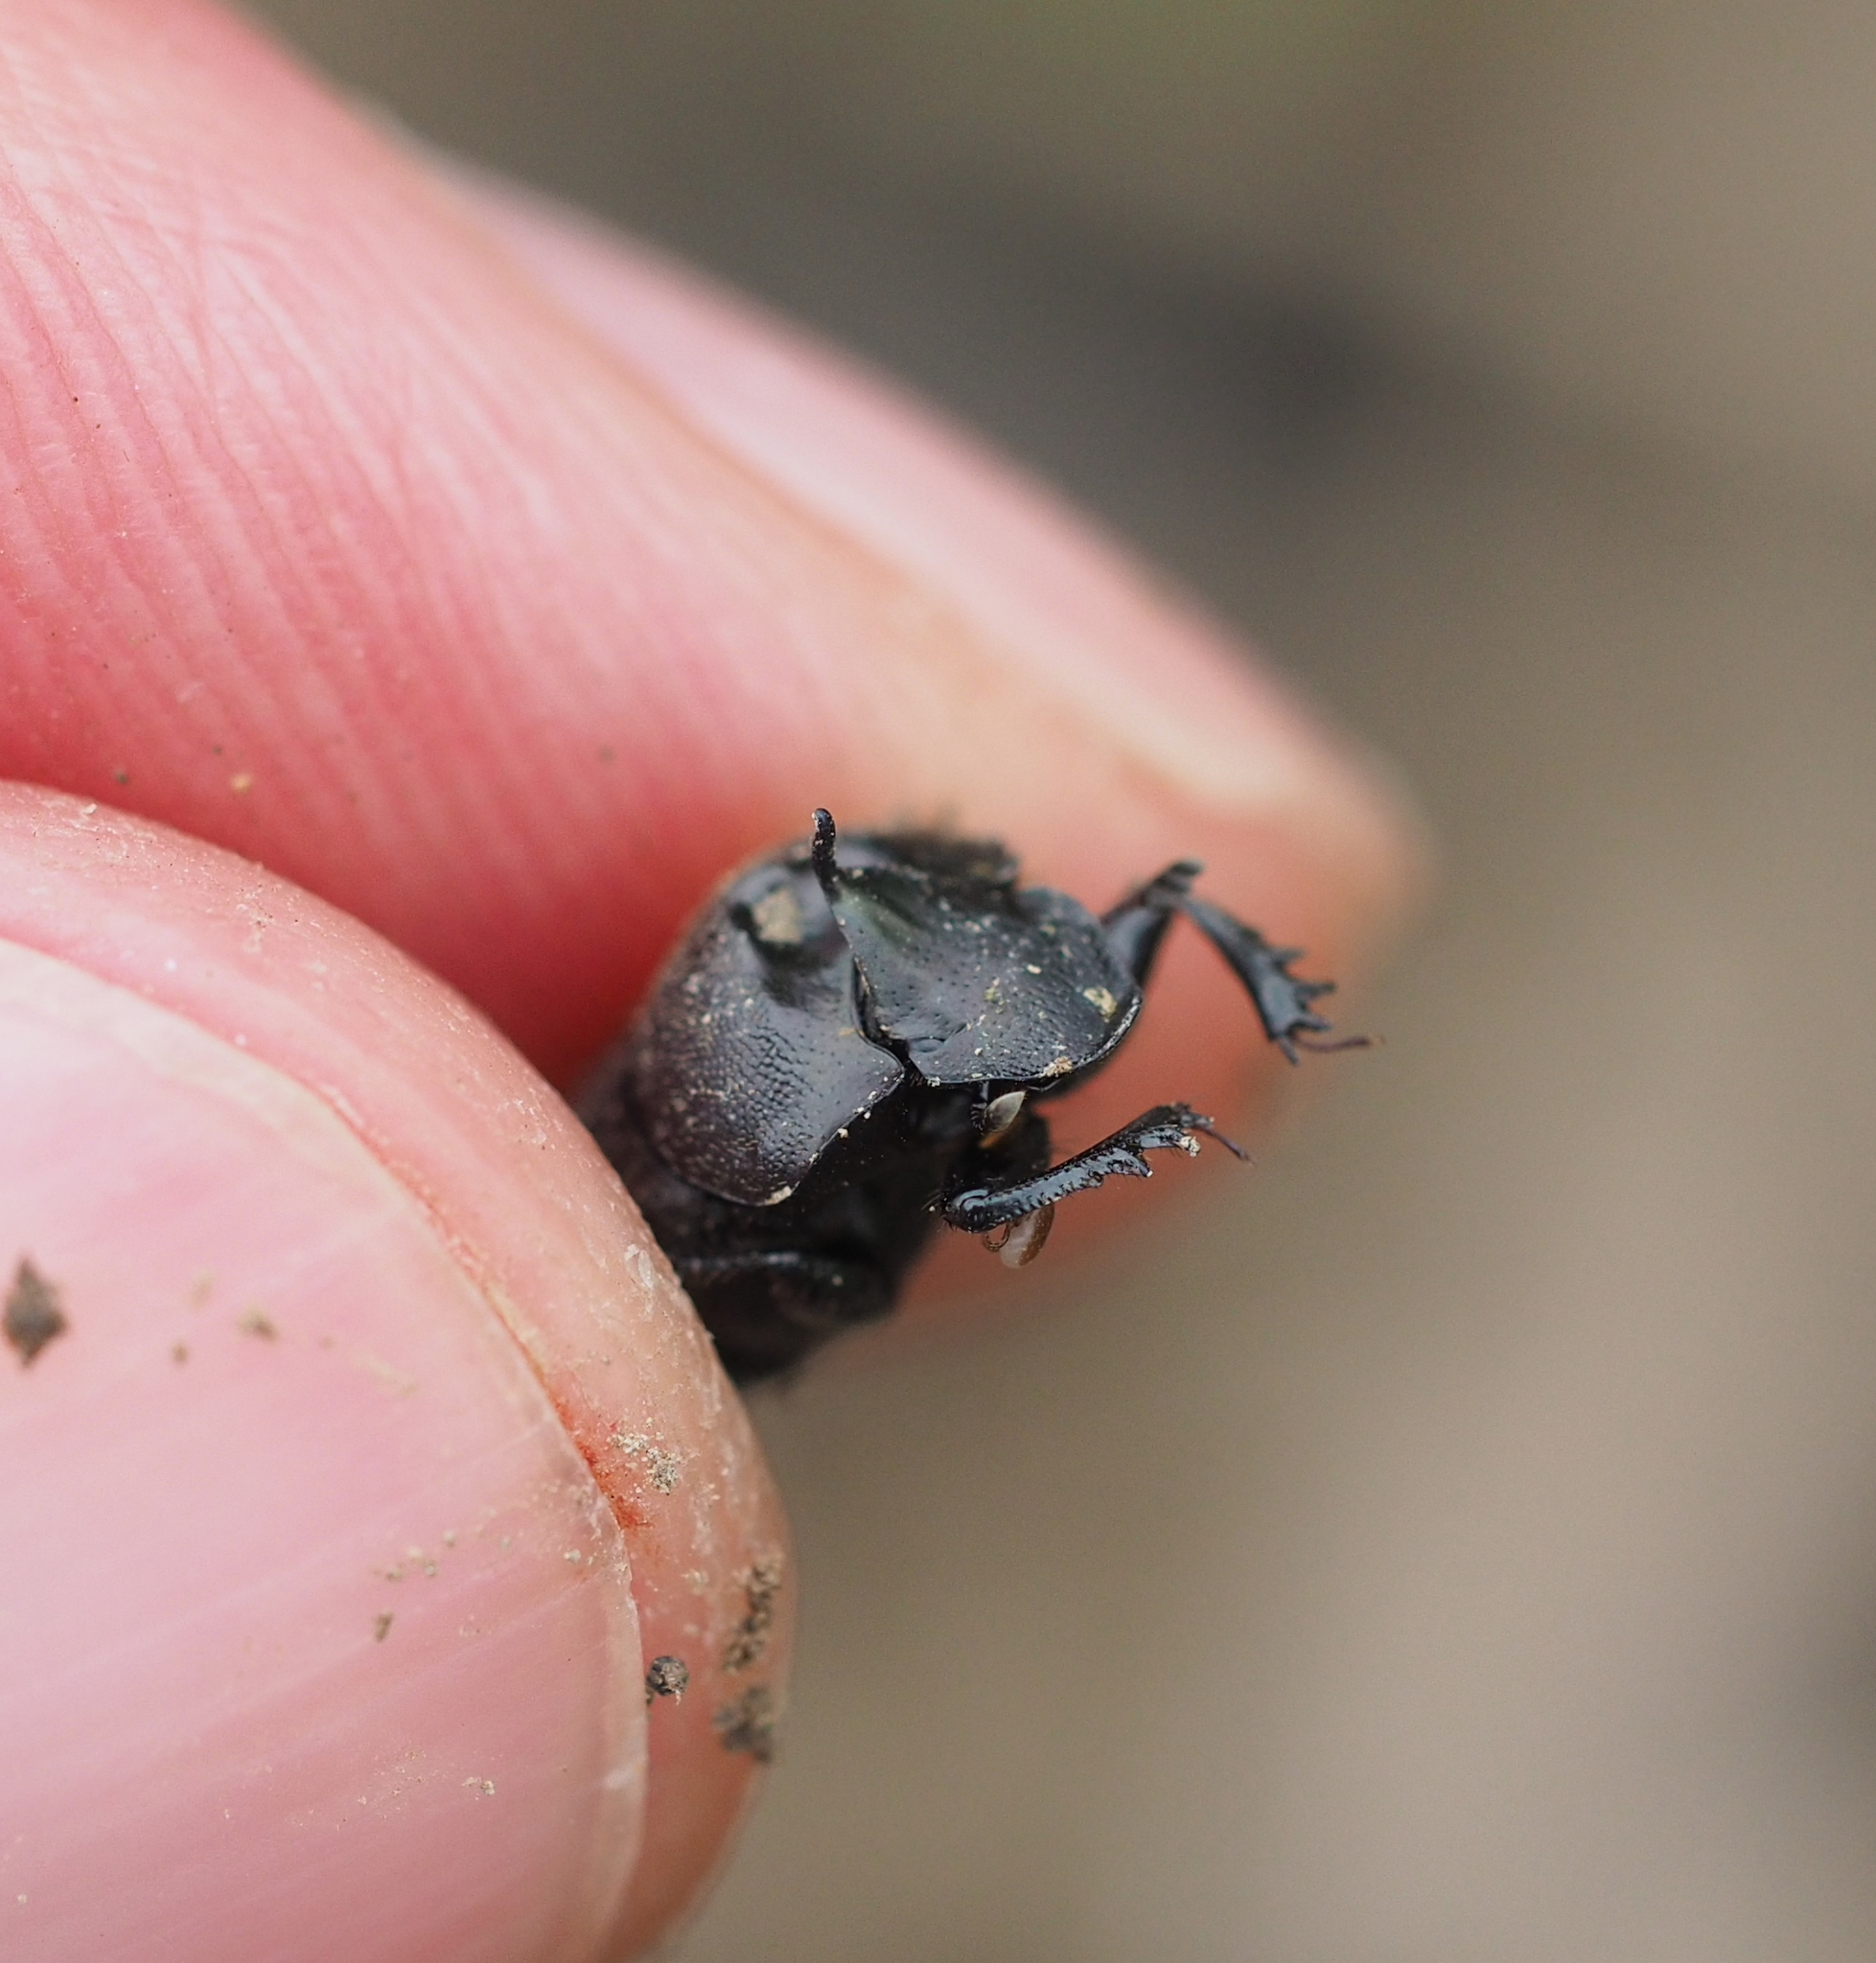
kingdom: Animalia
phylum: Arthropoda
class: Insecta
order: Coleoptera
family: Scarabaeidae
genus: Onthophagus
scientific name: Onthophagus verticicornis
